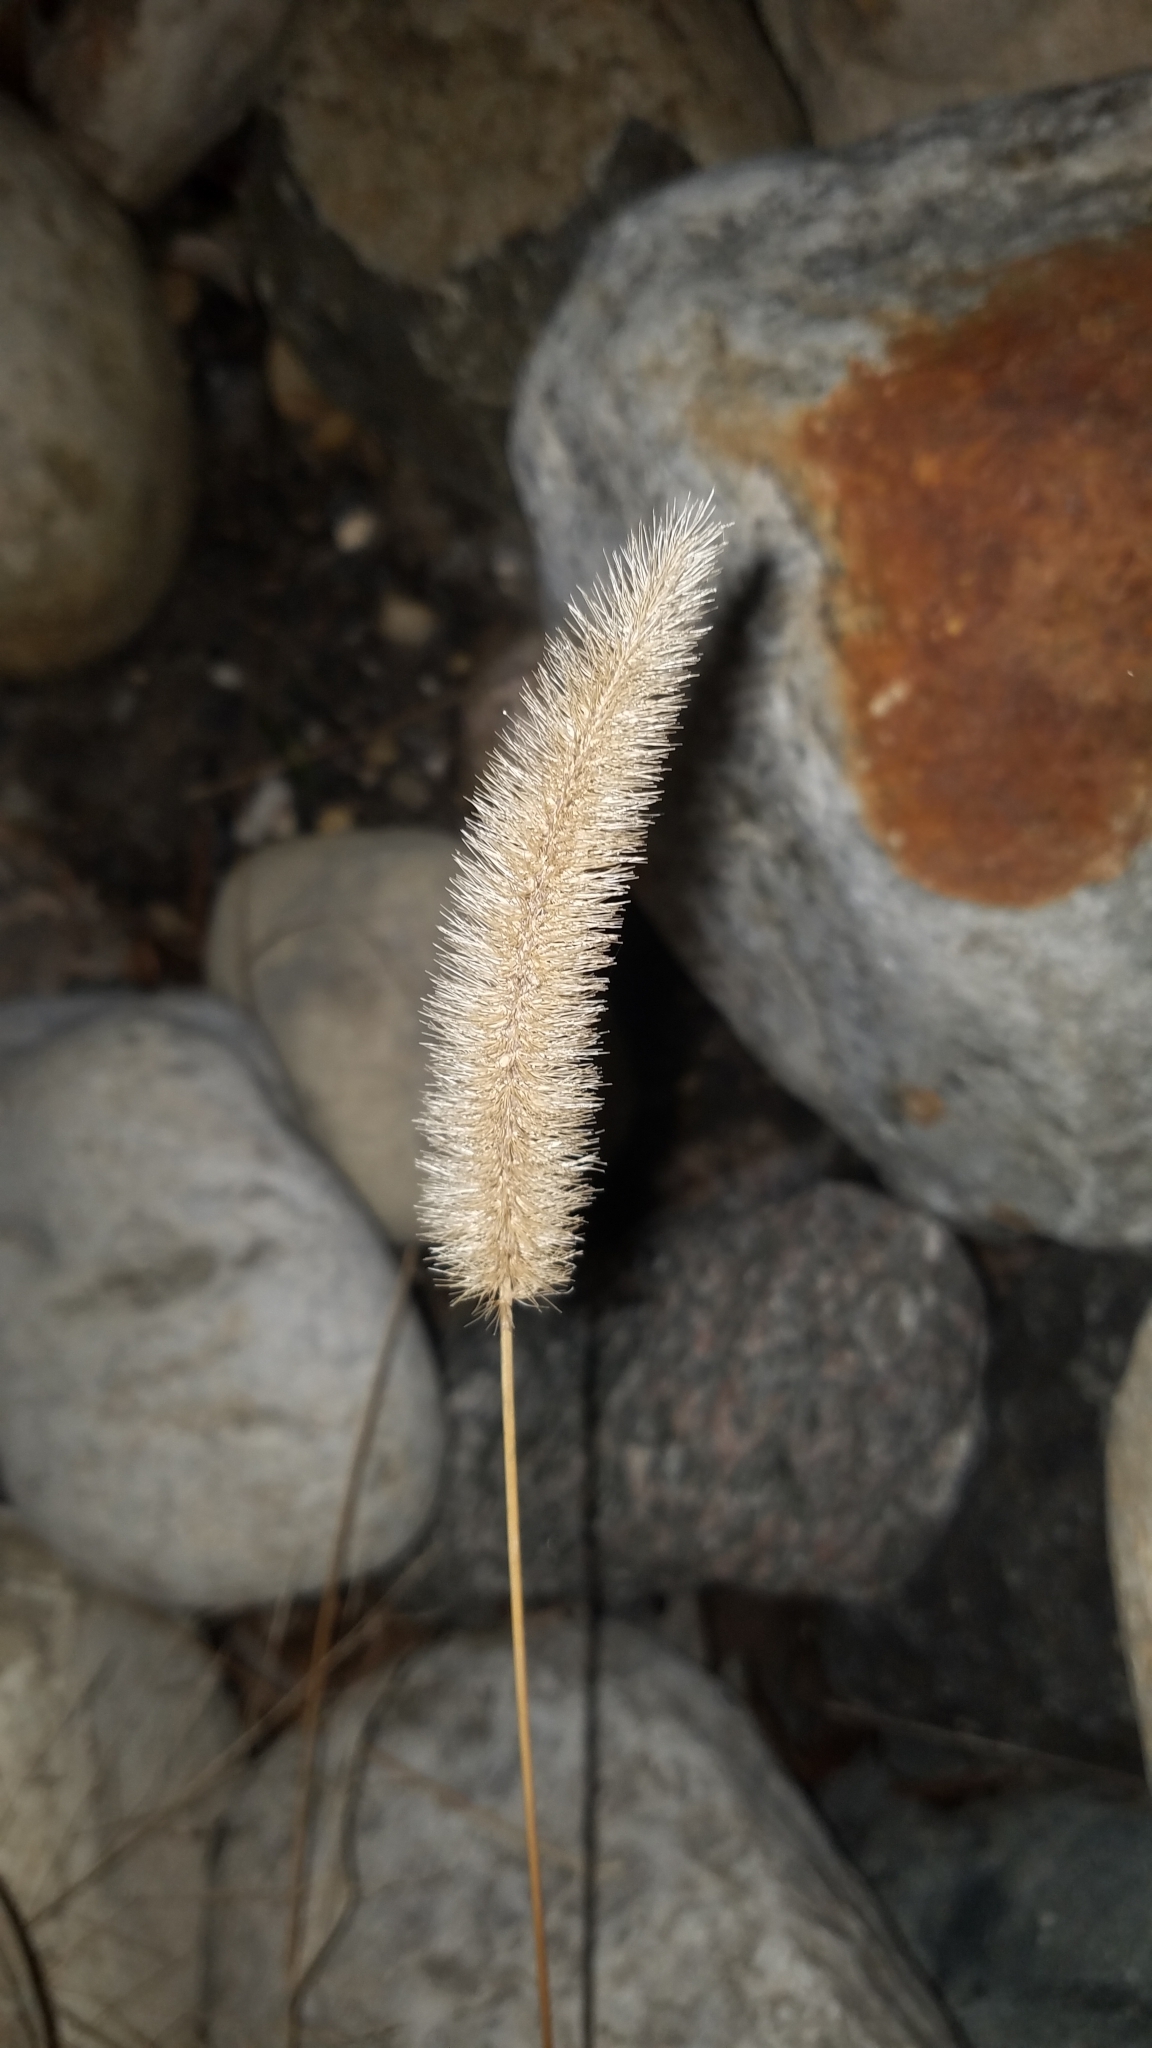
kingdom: Plantae
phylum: Tracheophyta
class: Liliopsida
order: Poales
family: Poaceae
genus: Setaria
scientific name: Setaria viridis
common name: Green bristlegrass
